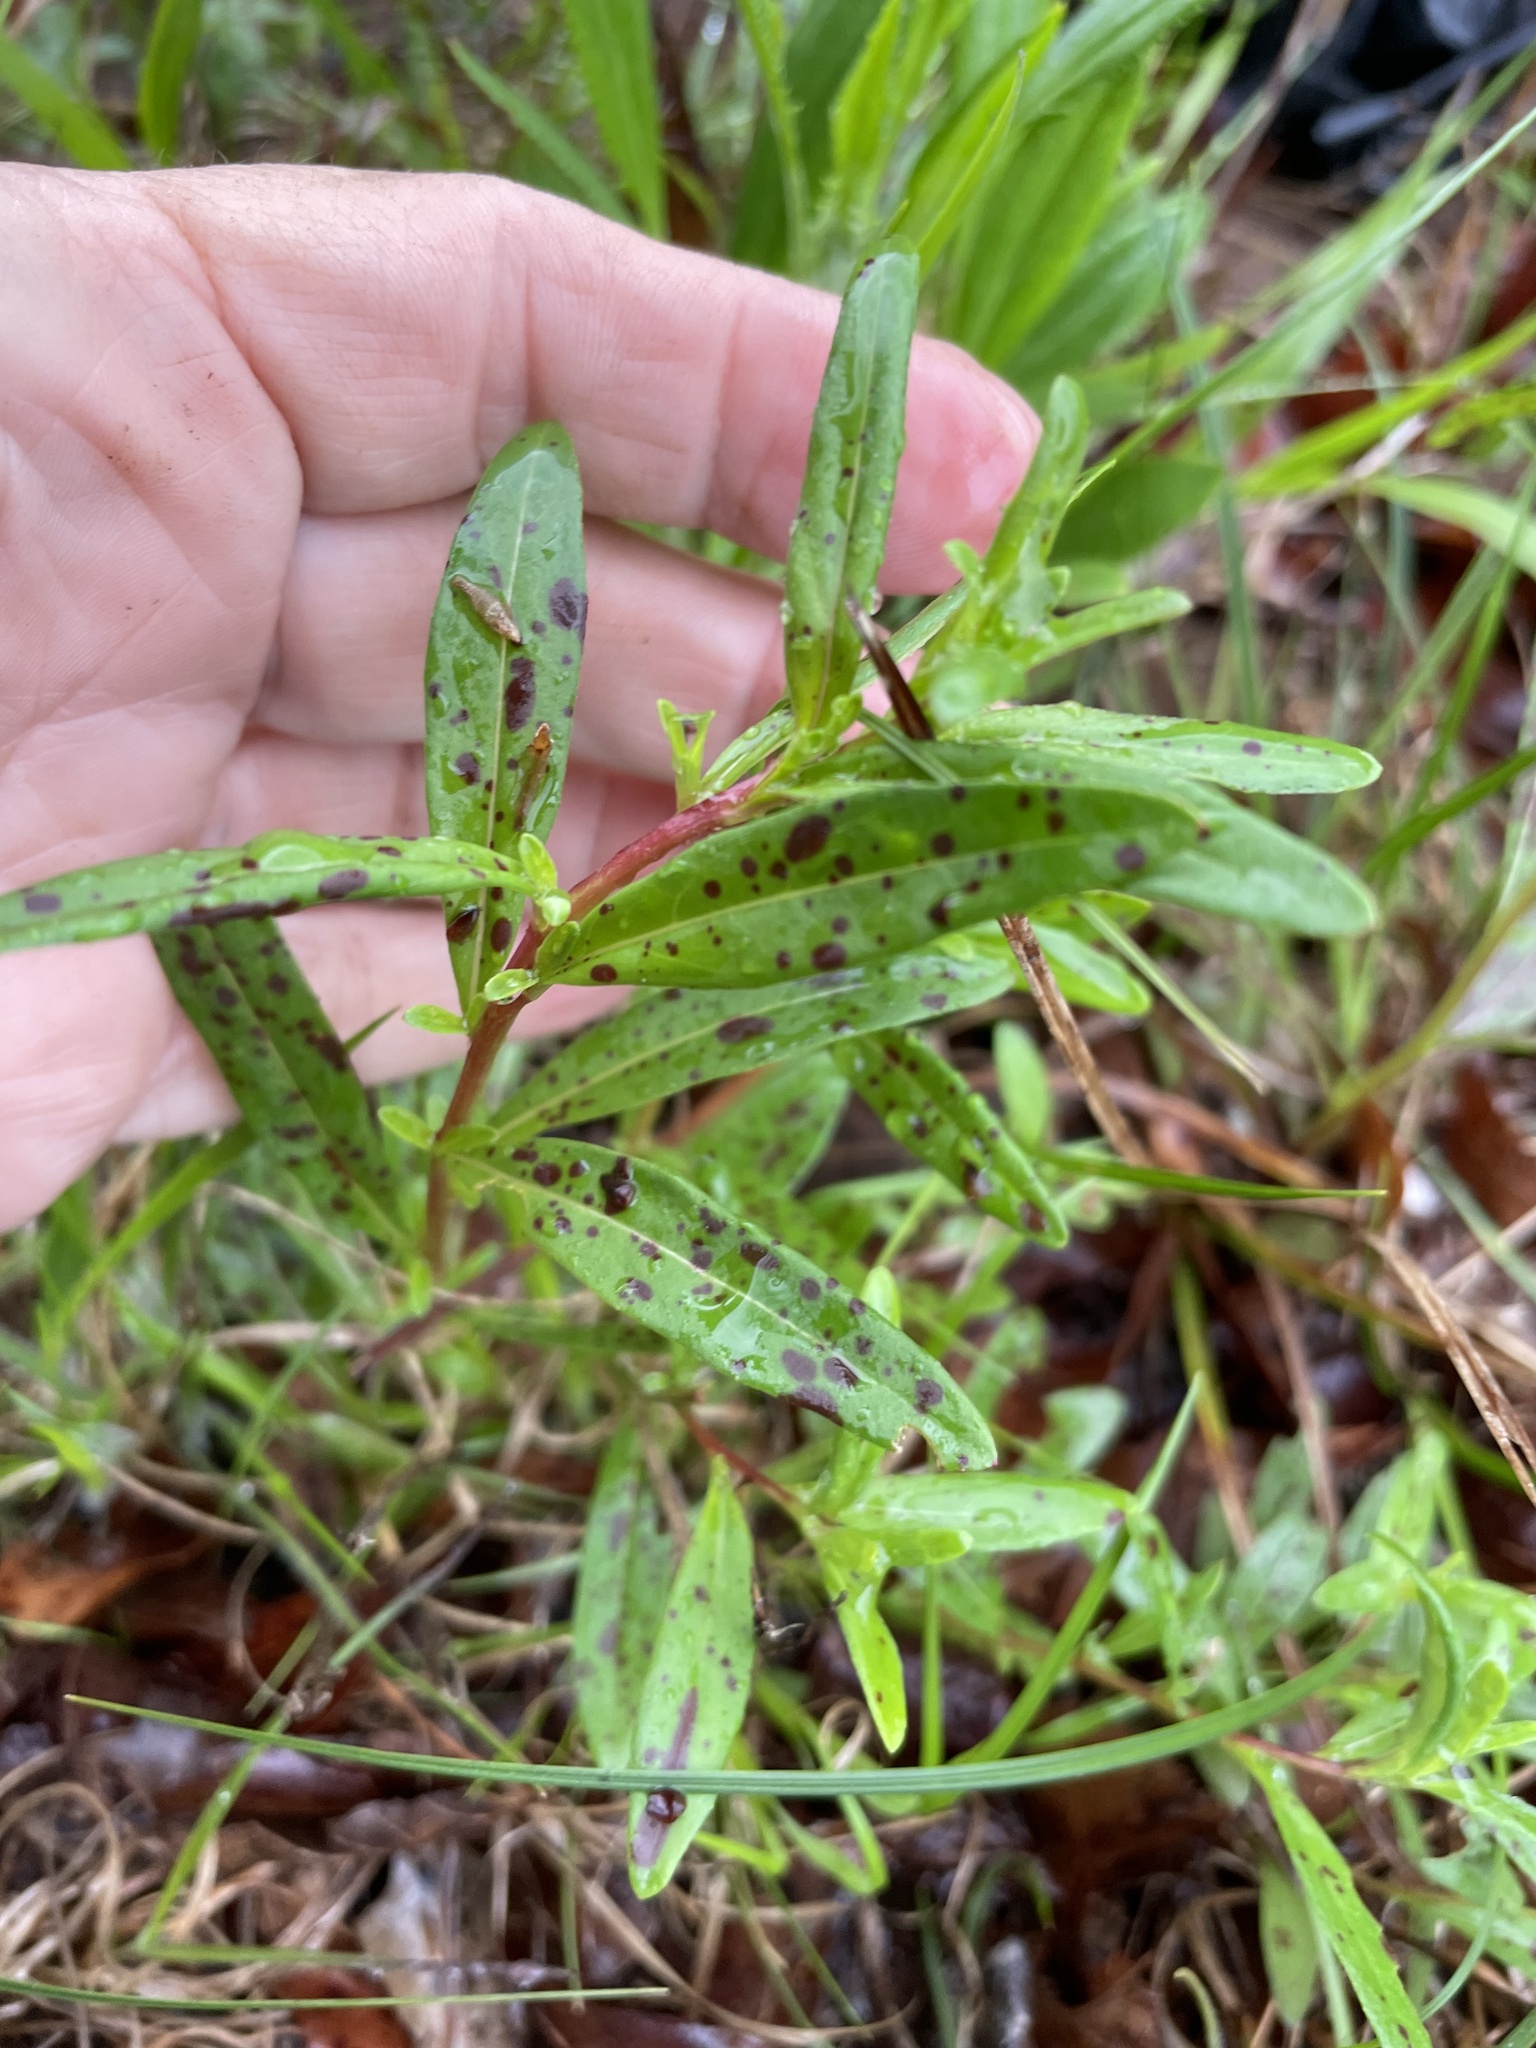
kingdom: Plantae
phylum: Tracheophyta
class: Magnoliopsida
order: Myrtales
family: Onagraceae
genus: Oenothera
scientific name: Oenothera fruticosa
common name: Southern sundrops
